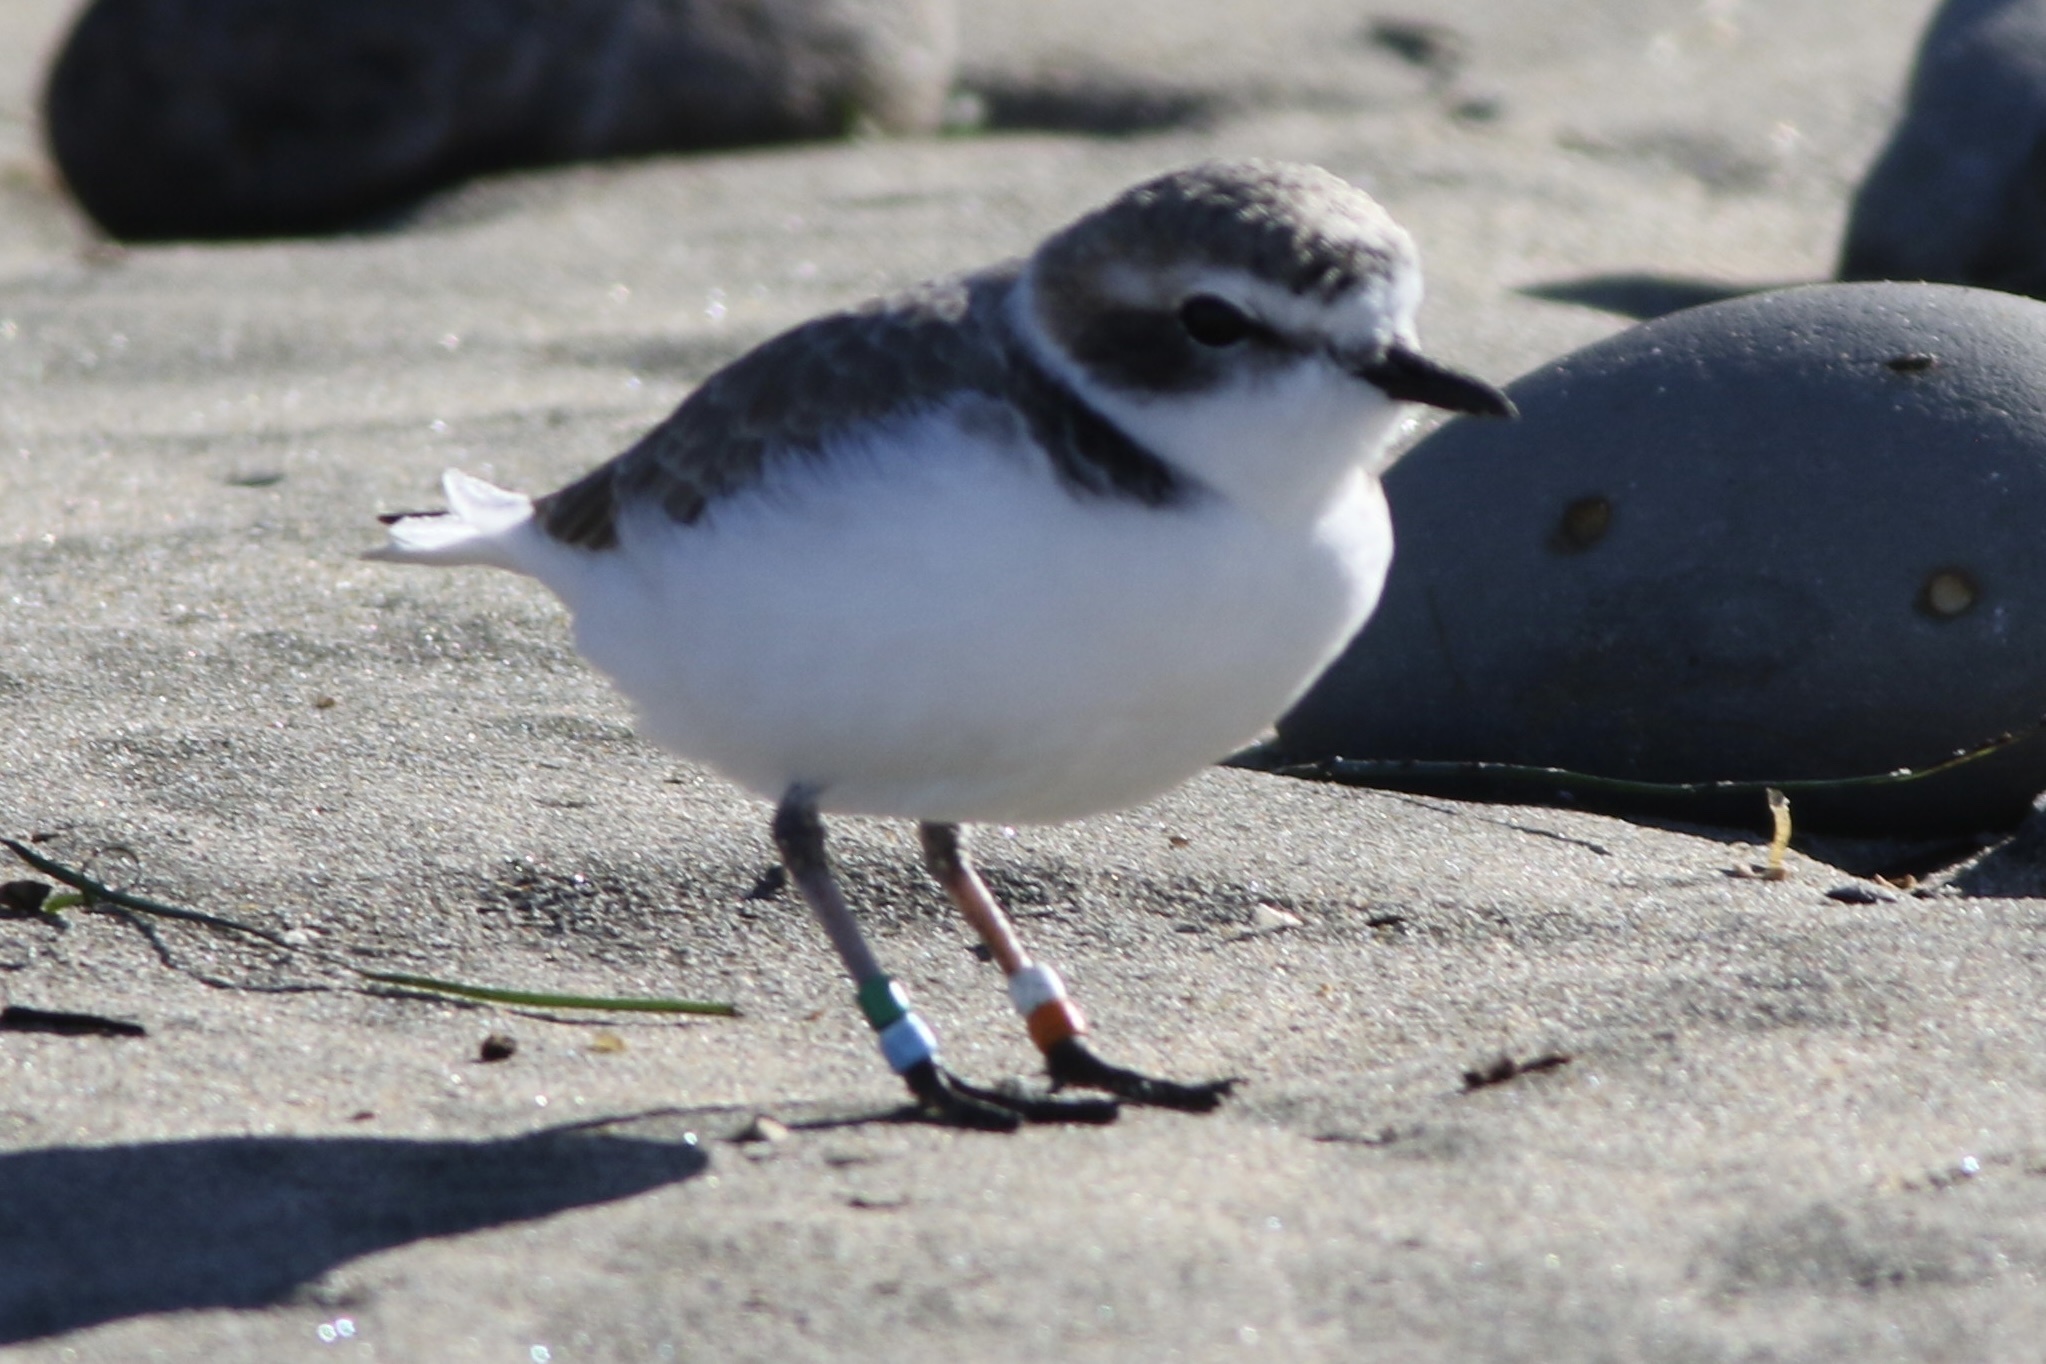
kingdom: Animalia
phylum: Chordata
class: Aves
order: Charadriiformes
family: Charadriidae
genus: Anarhynchus
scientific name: Anarhynchus
